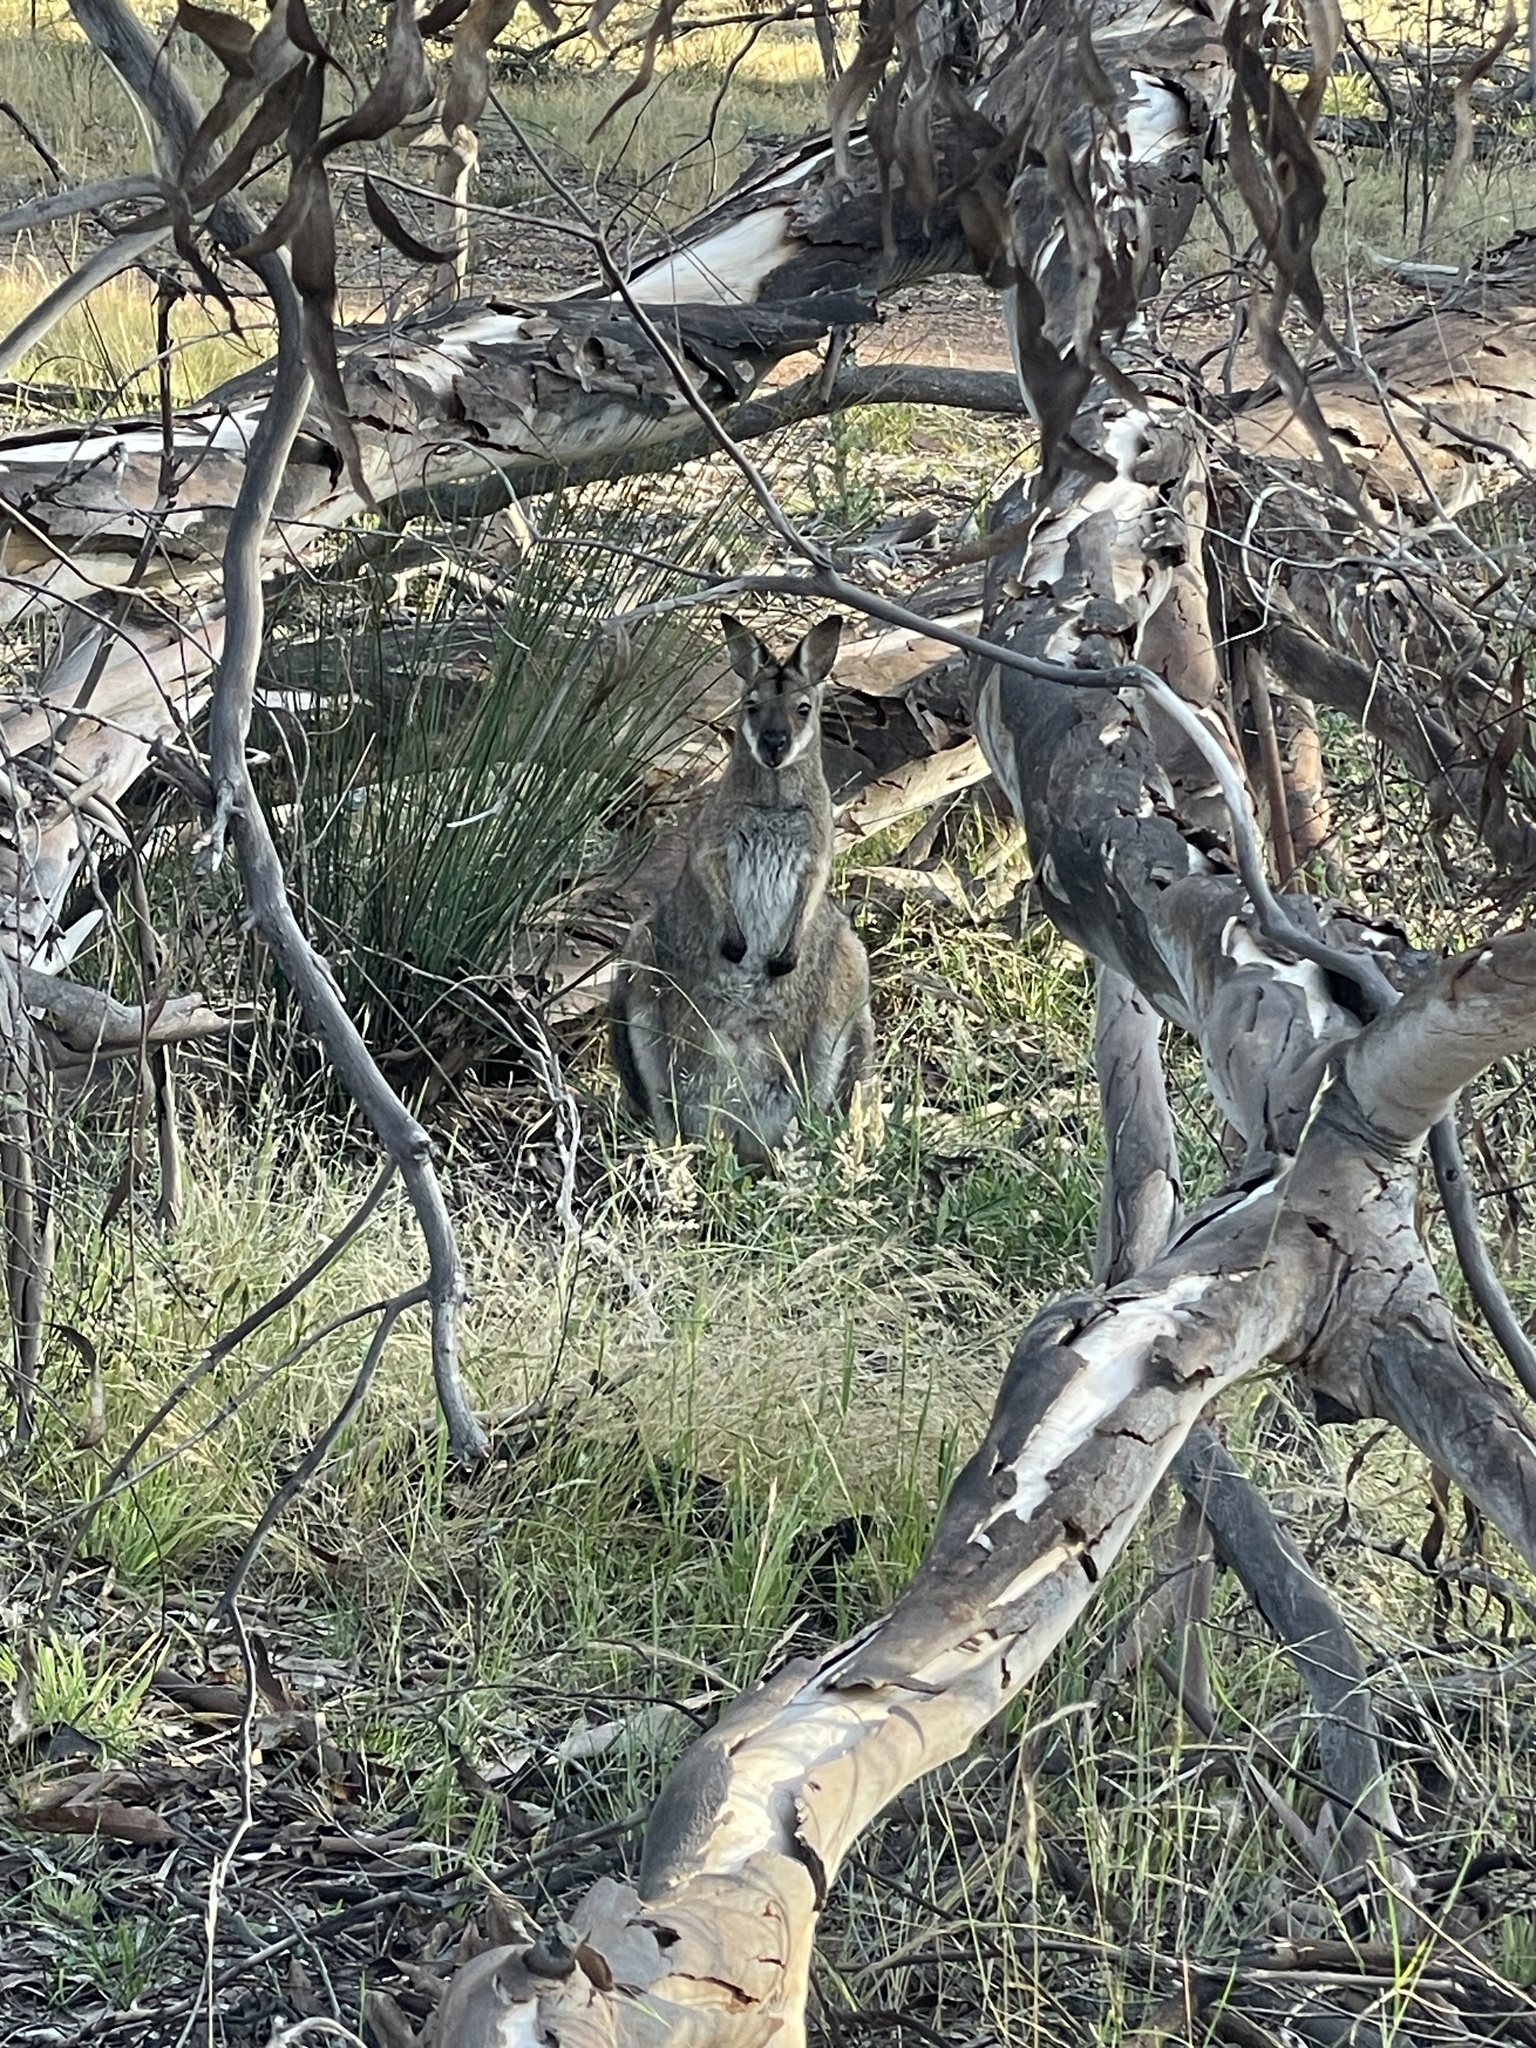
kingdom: Animalia
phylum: Chordata
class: Mammalia
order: Diprotodontia
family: Macropodidae
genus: Notamacropus
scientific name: Notamacropus rufogriseus
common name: Red-necked wallaby
